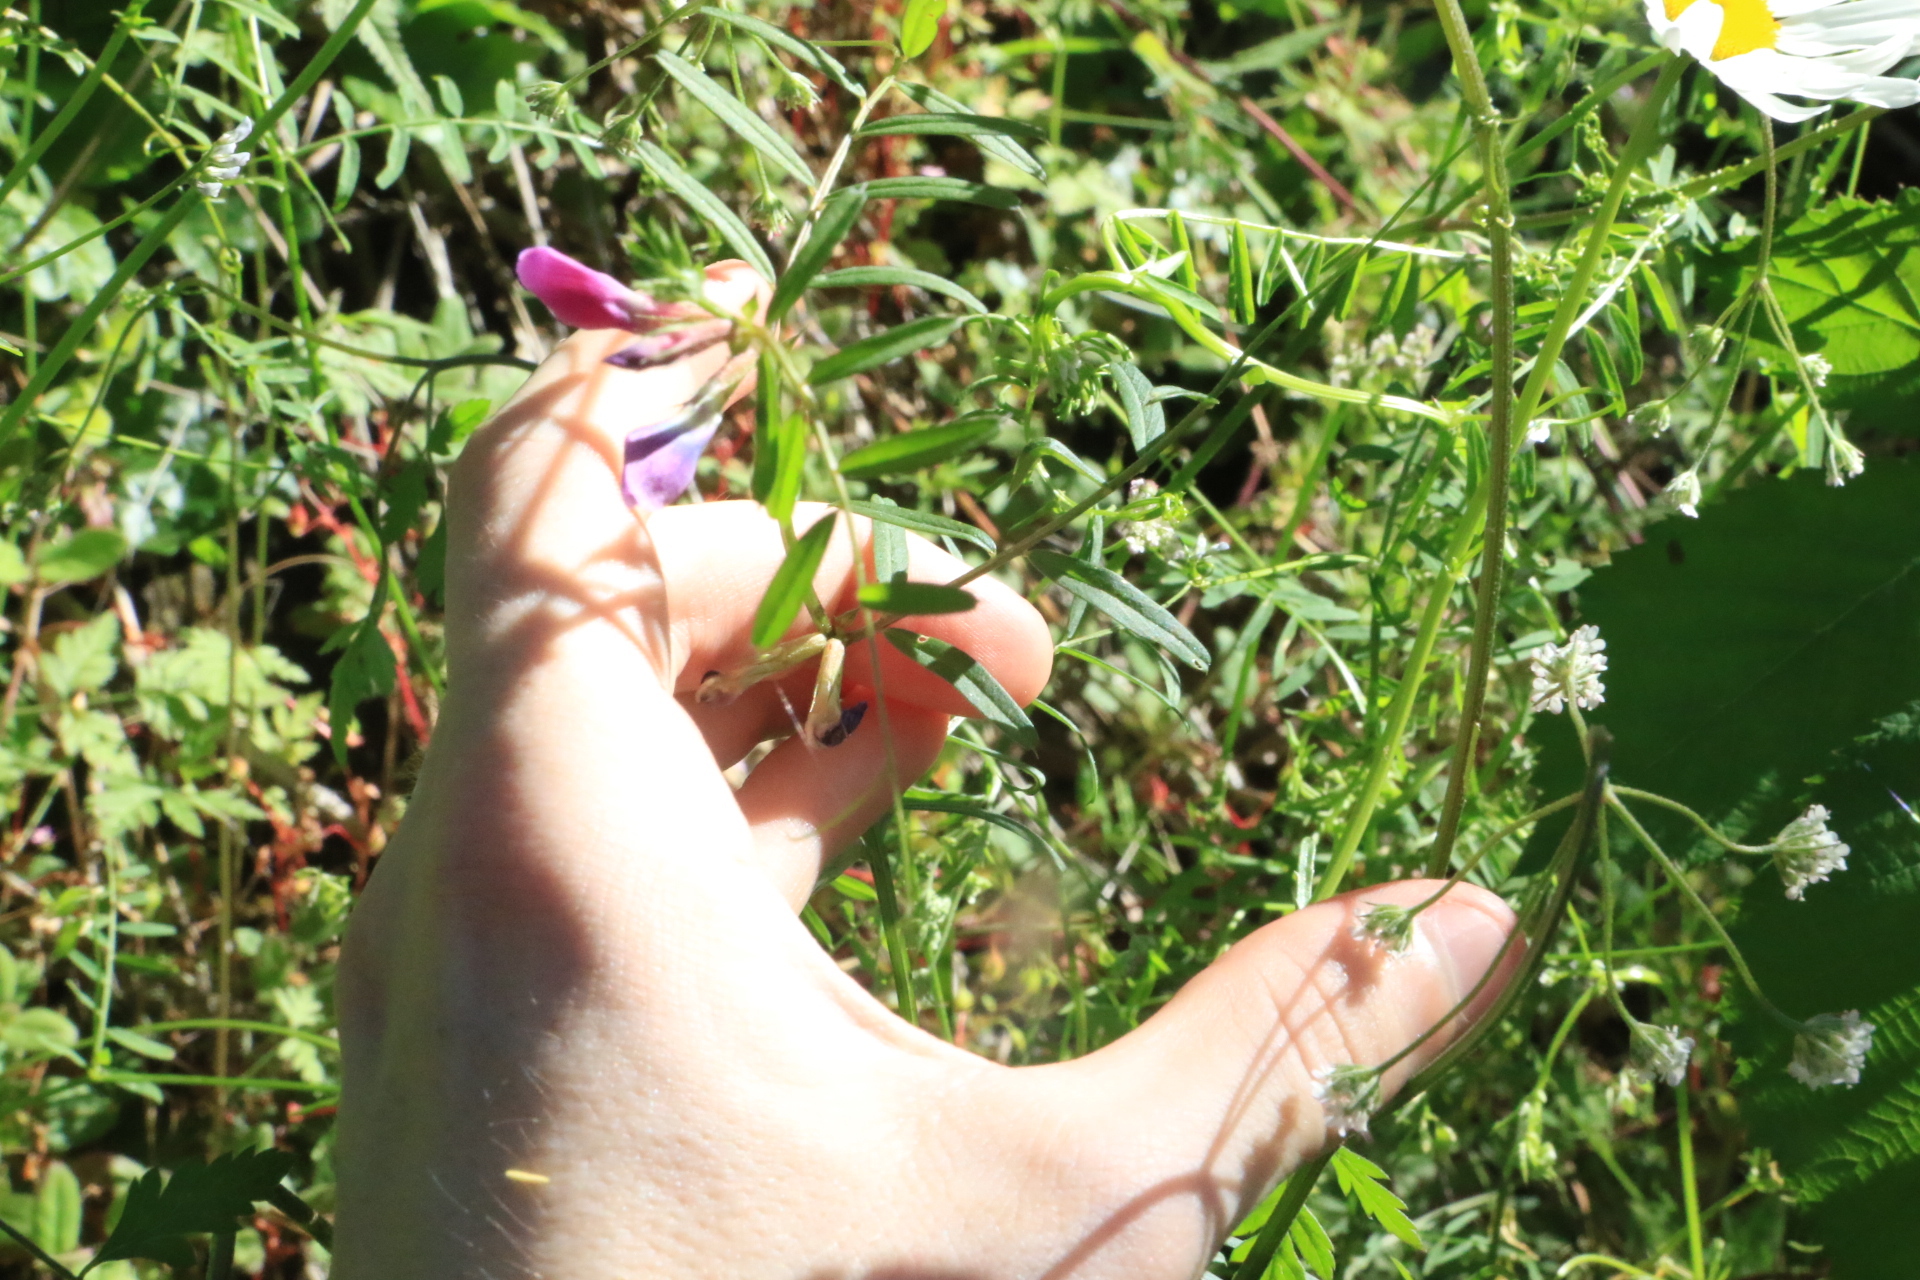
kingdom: Plantae
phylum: Tracheophyta
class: Magnoliopsida
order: Fabales
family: Fabaceae
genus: Vicia
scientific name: Vicia sativa
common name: Garden vetch
